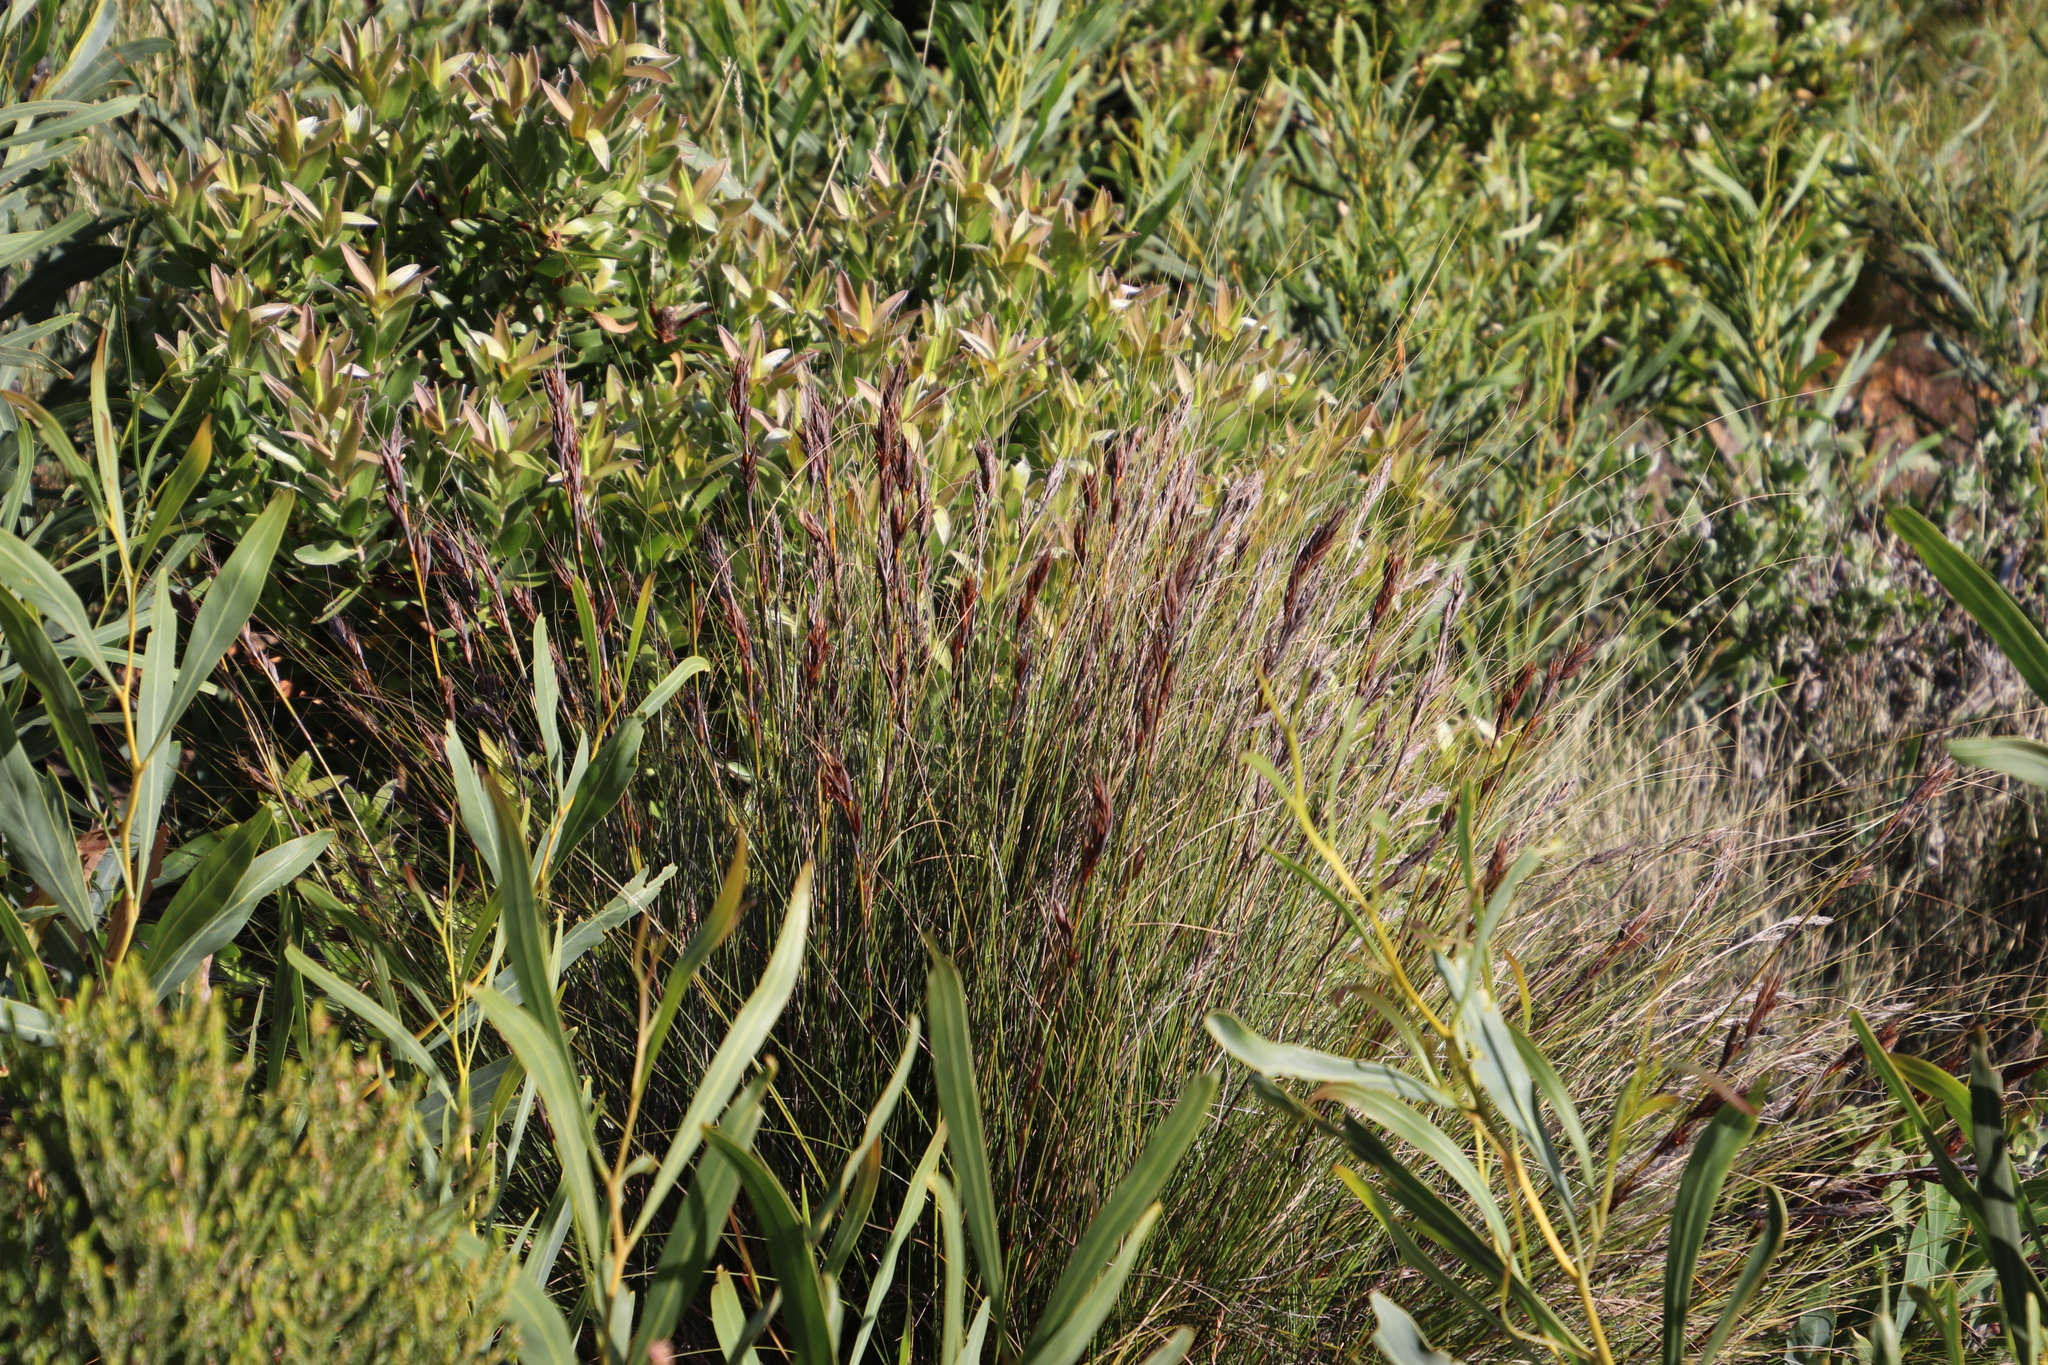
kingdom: Plantae
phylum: Tracheophyta
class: Liliopsida
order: Poales
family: Cyperaceae
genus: Tetraria
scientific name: Tetraria ustulata
